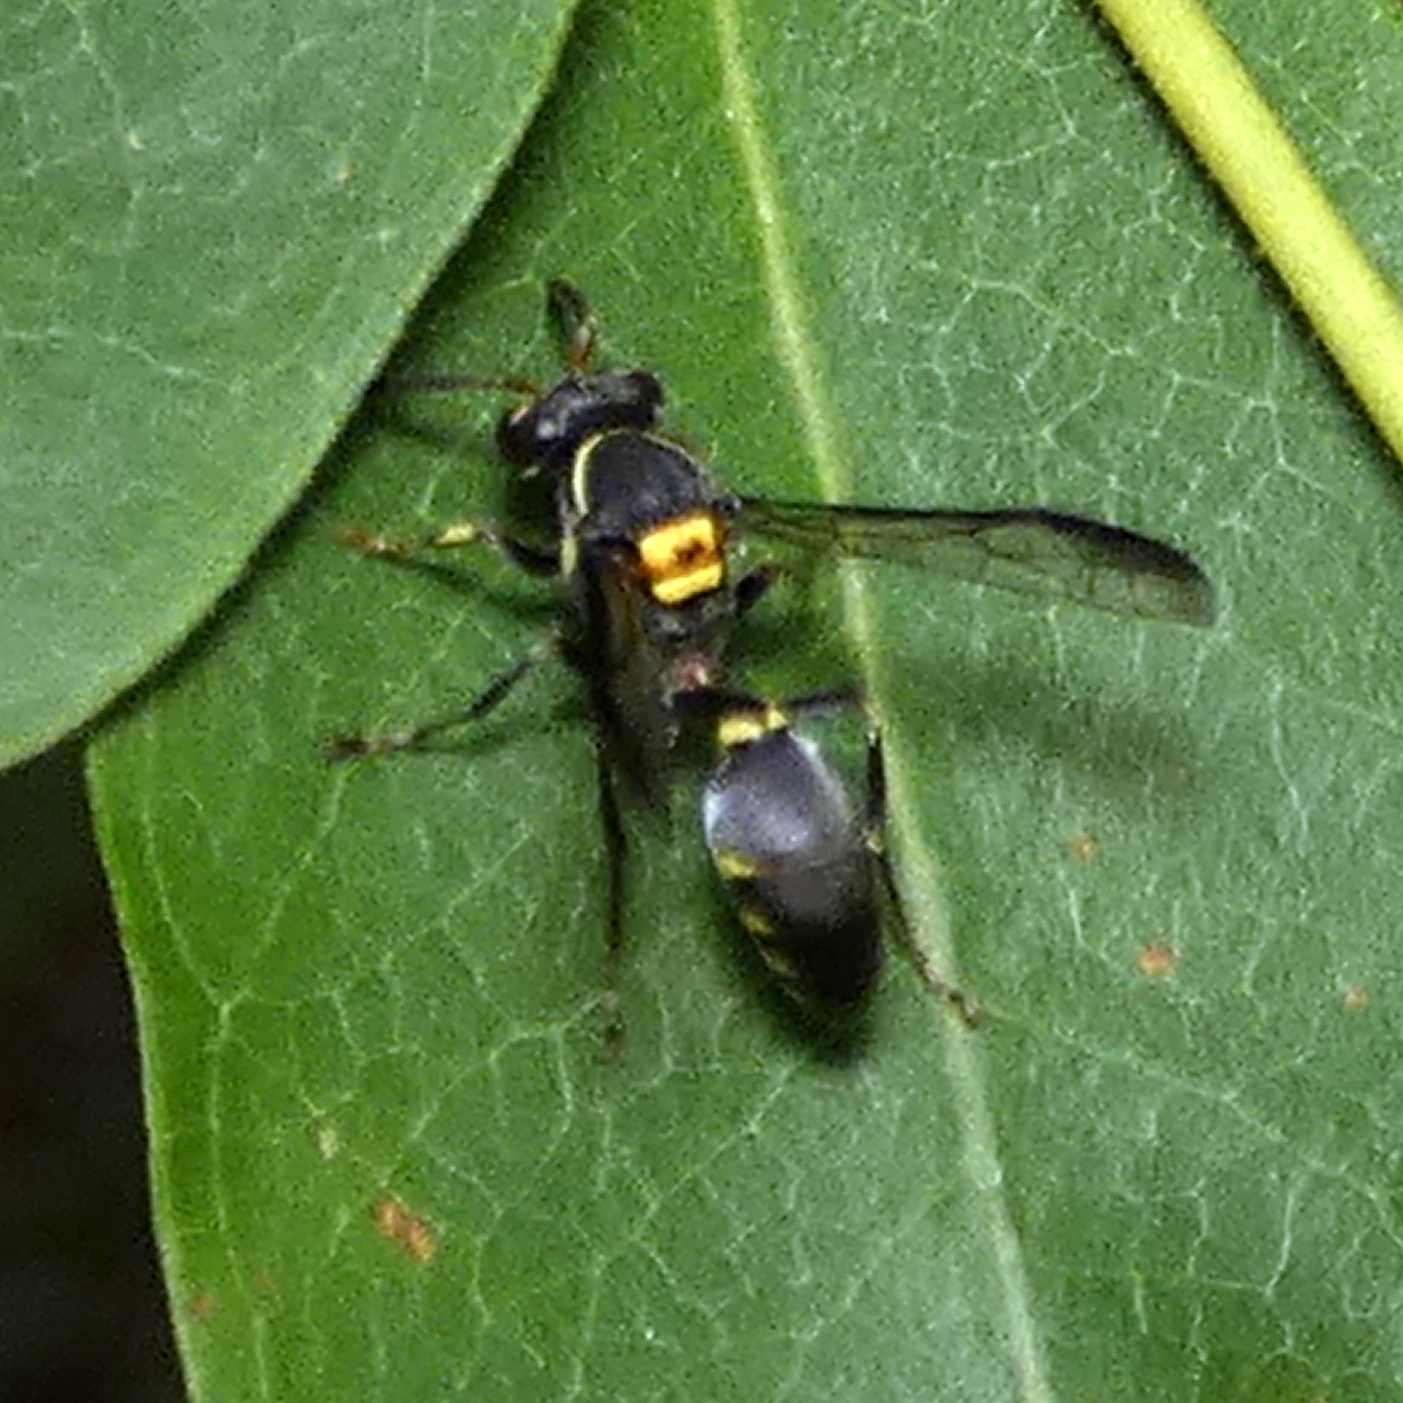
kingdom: Animalia
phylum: Arthropoda
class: Insecta
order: Hymenoptera
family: Eumenidae
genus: Polybia
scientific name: Polybia ruficeps
